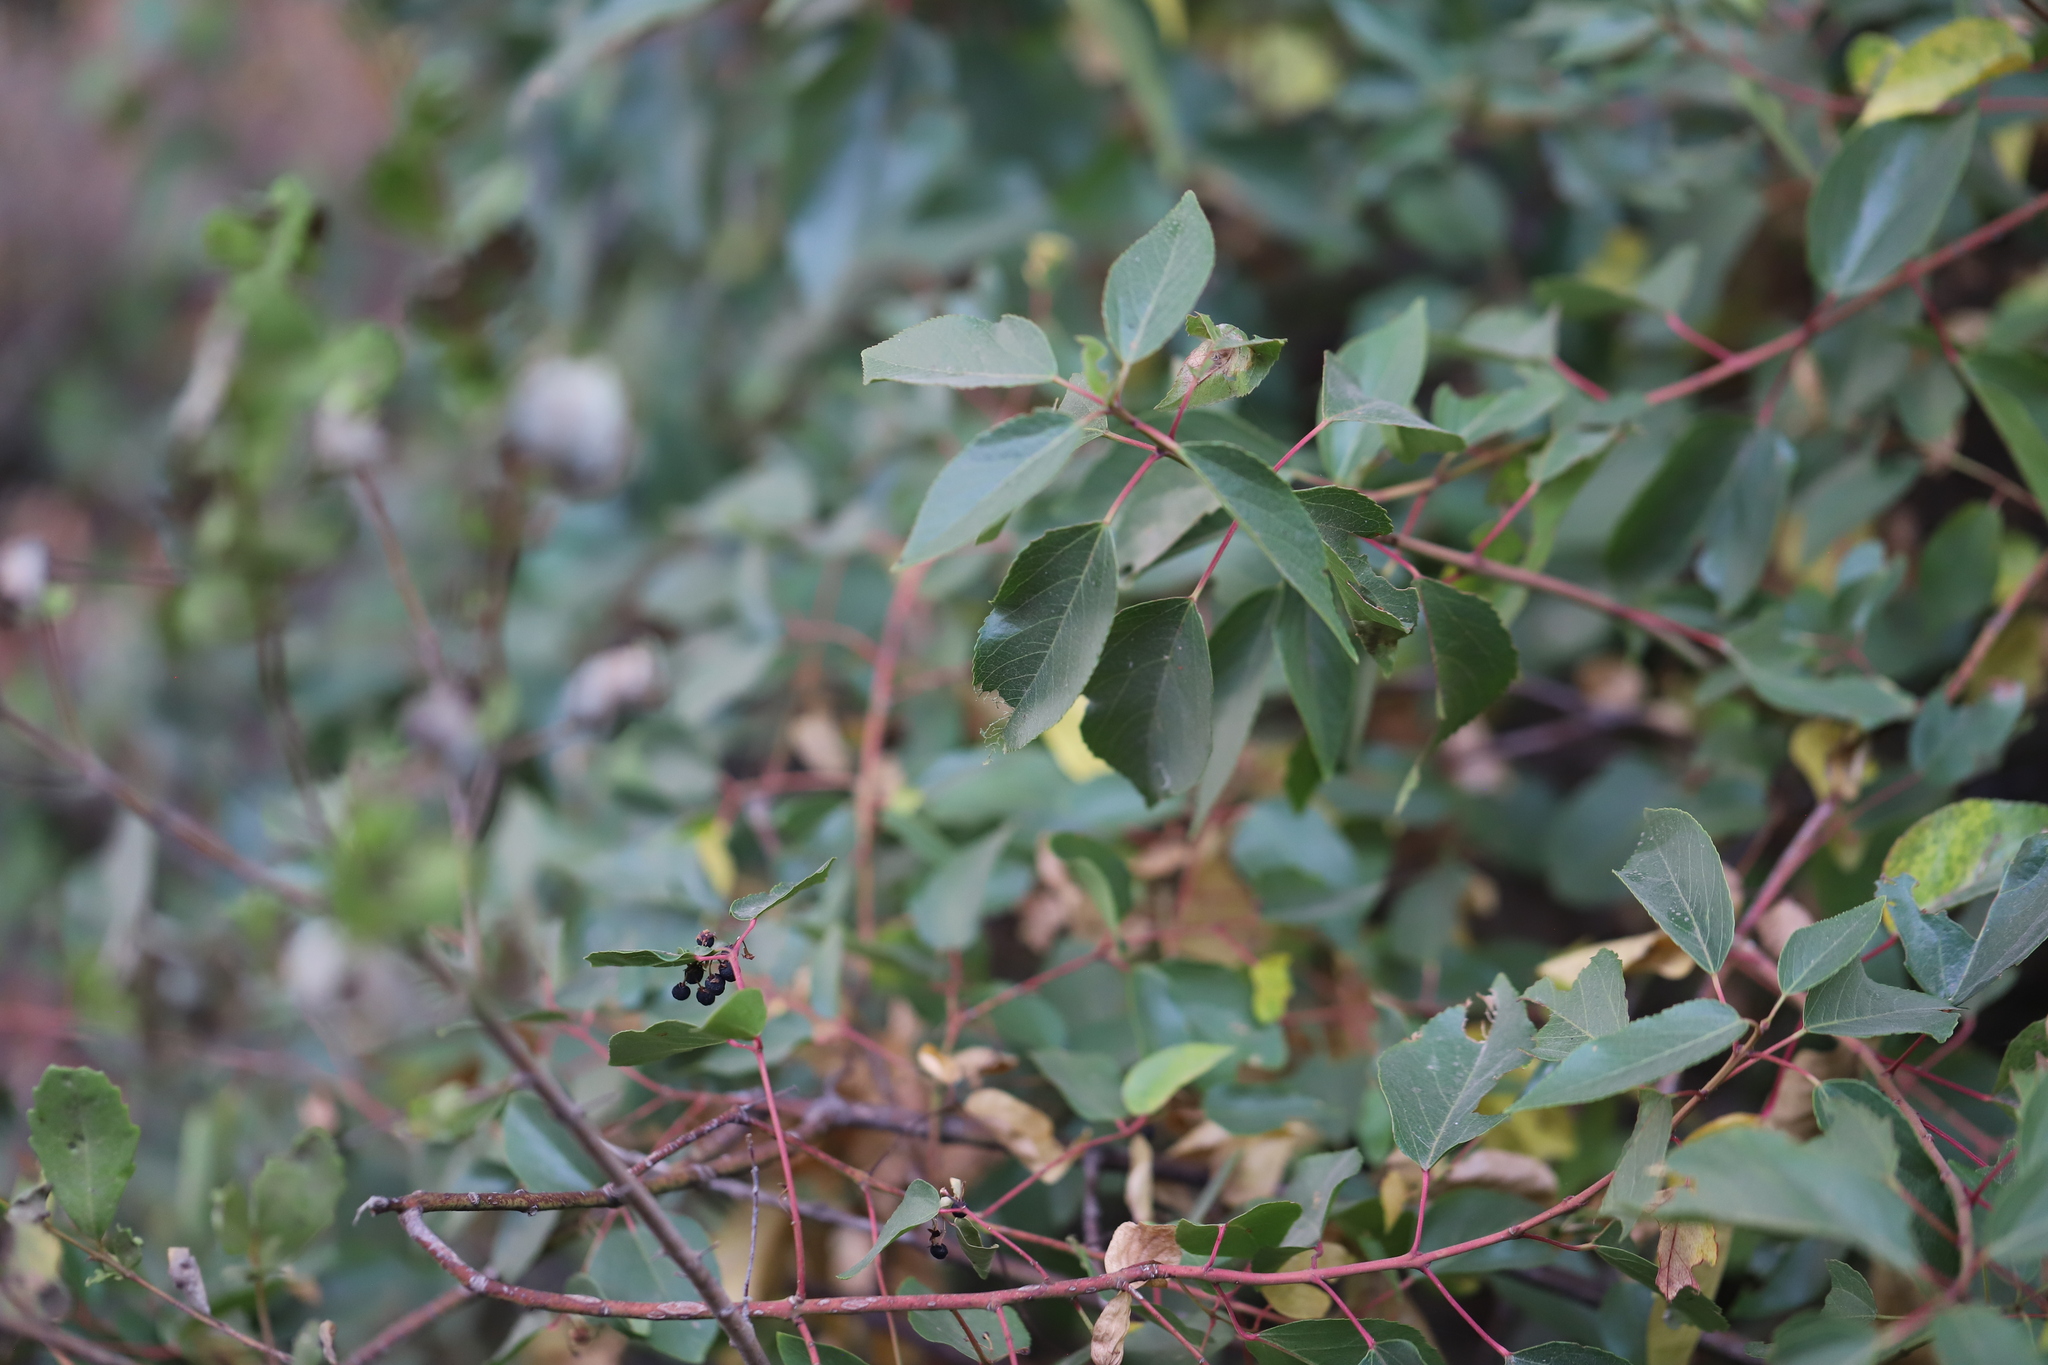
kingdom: Plantae
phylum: Tracheophyta
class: Magnoliopsida
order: Oxalidales
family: Elaeocarpaceae
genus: Aristotelia
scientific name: Aristotelia chilensis
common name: Maquei
